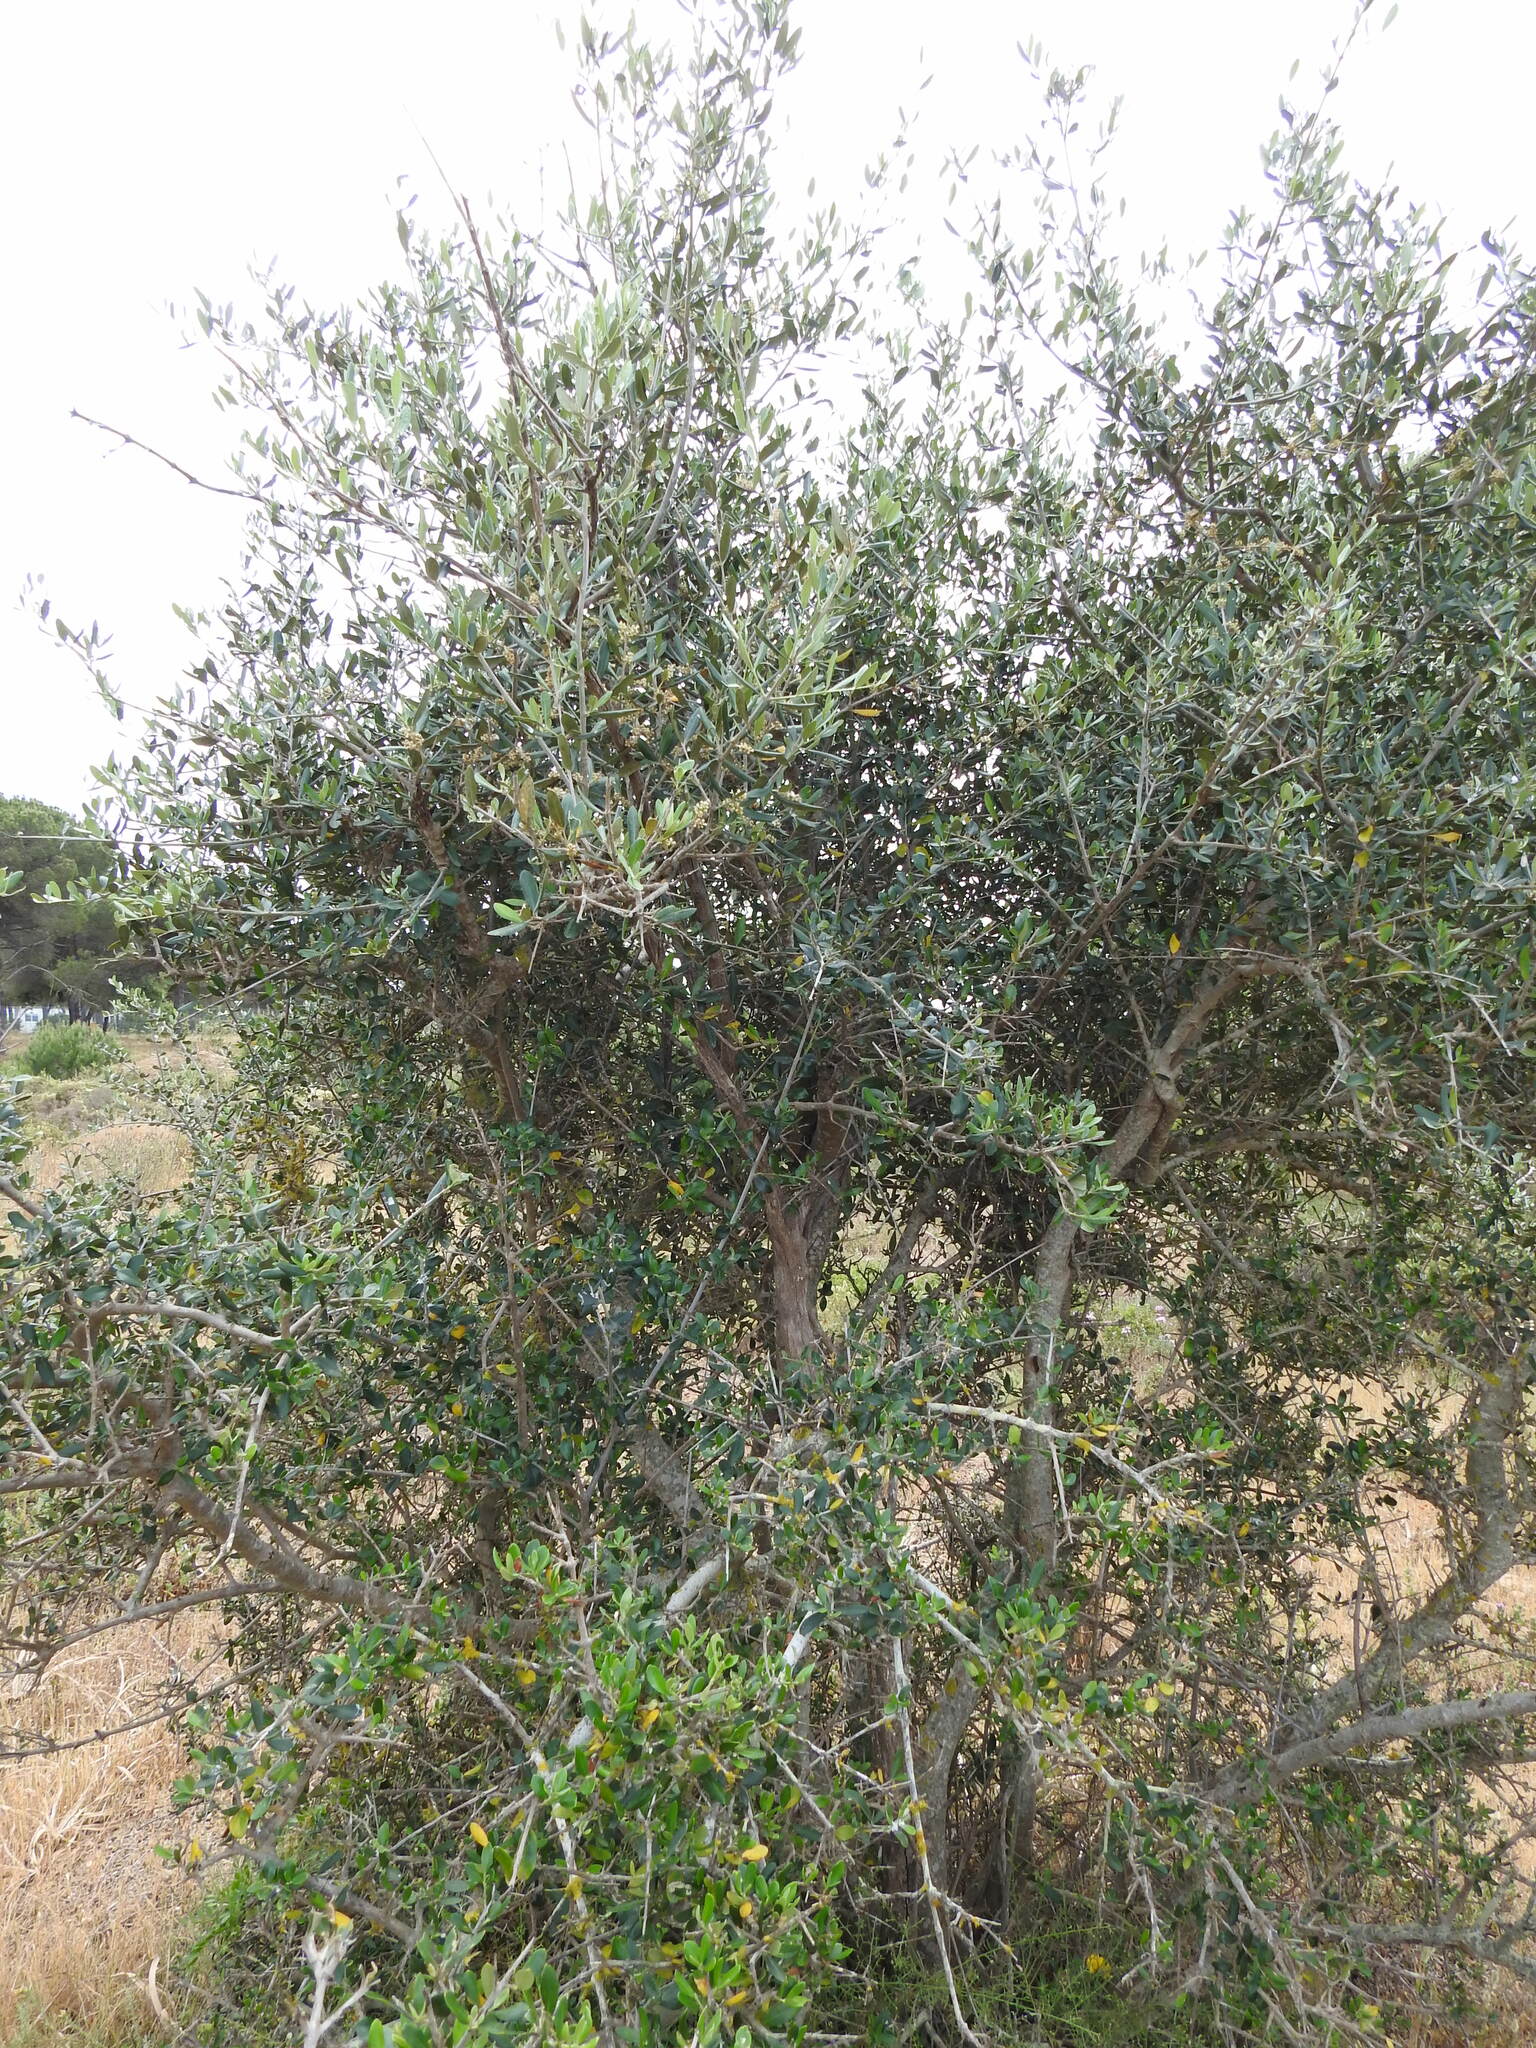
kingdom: Plantae
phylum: Tracheophyta
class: Magnoliopsida
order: Lamiales
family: Oleaceae
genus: Olea
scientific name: Olea europaea
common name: Olive
